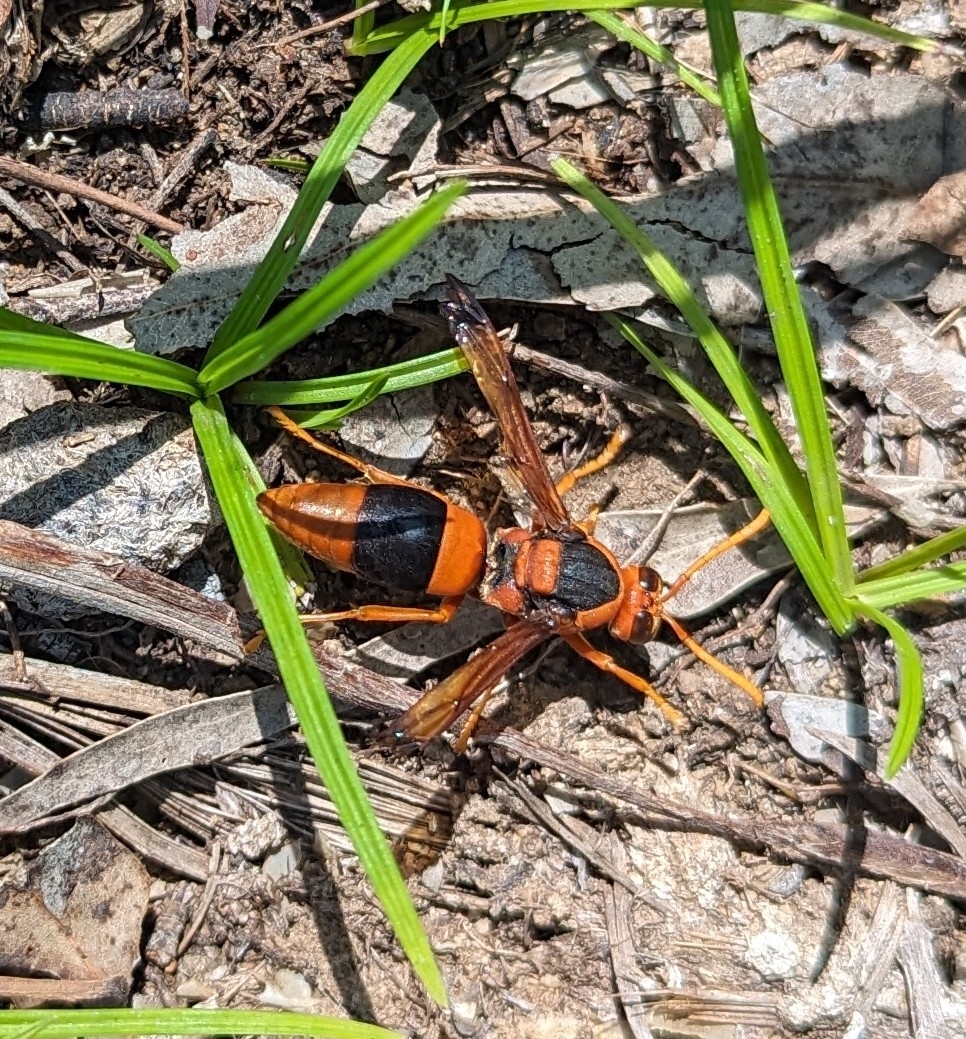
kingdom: Animalia
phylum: Arthropoda
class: Insecta
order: Hymenoptera
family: Eumenidae
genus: Abispa
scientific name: Abispa ephippium
